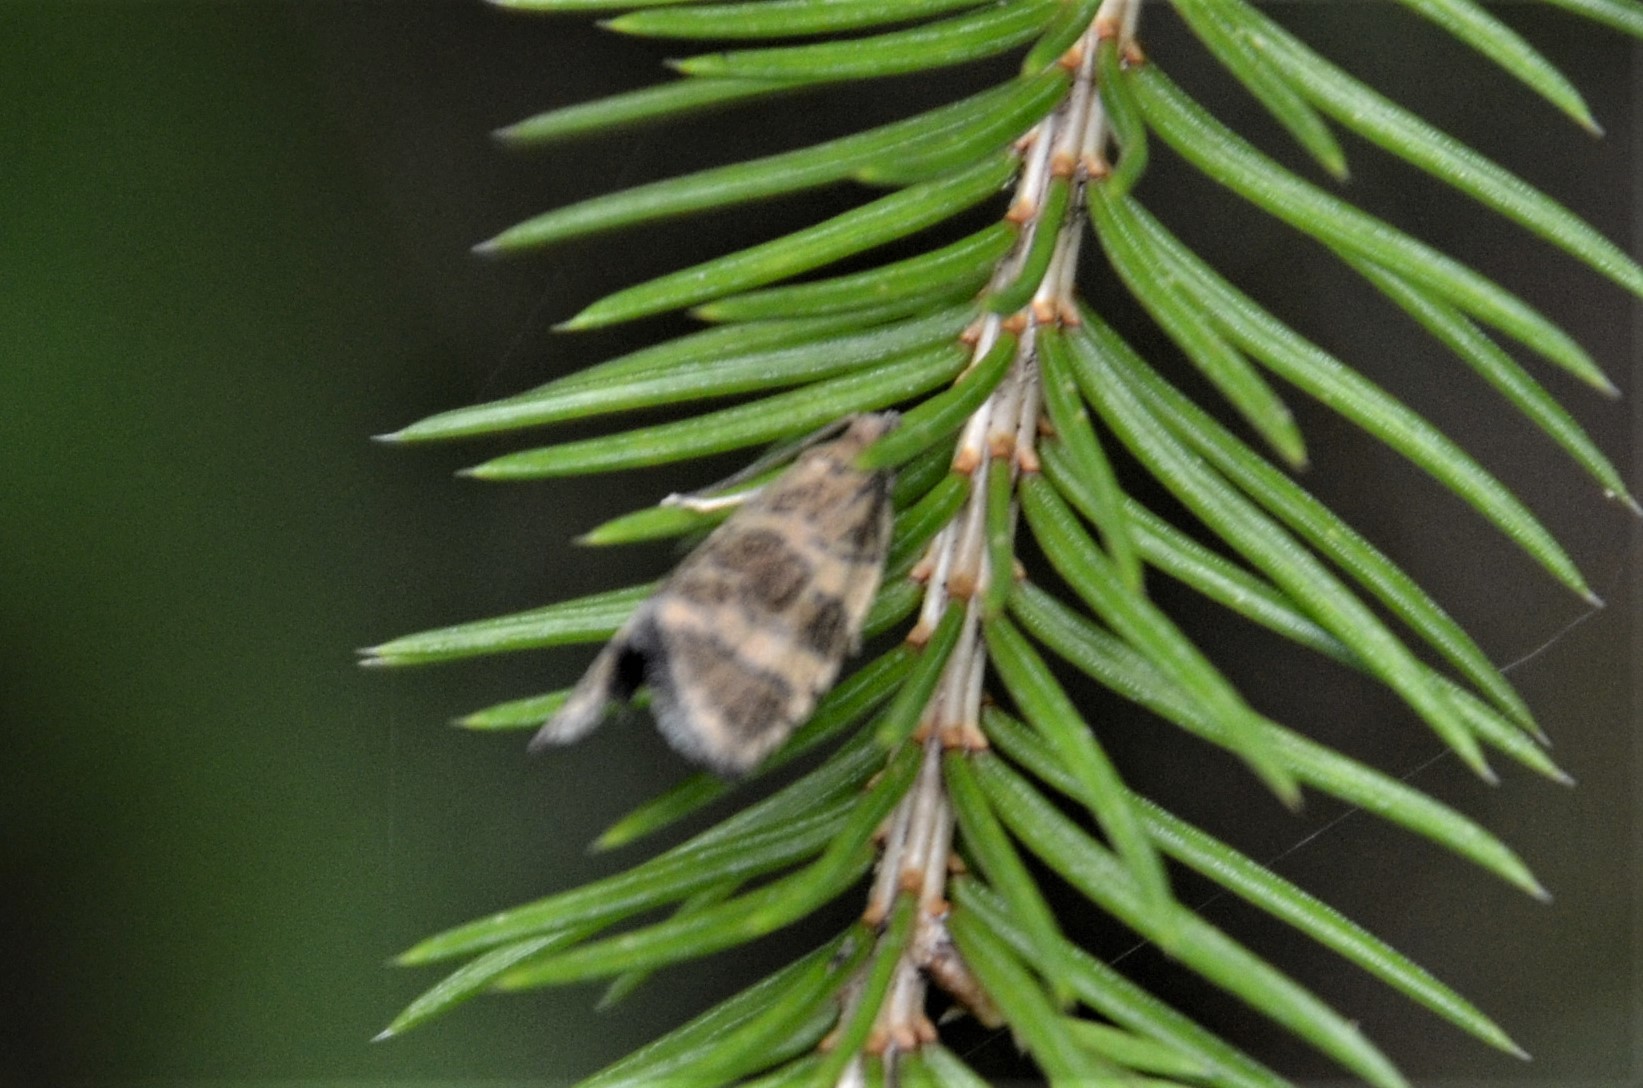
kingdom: Animalia
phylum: Arthropoda
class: Insecta
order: Lepidoptera
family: Tortricidae
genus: Olethreutes
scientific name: Olethreutes metallicana
